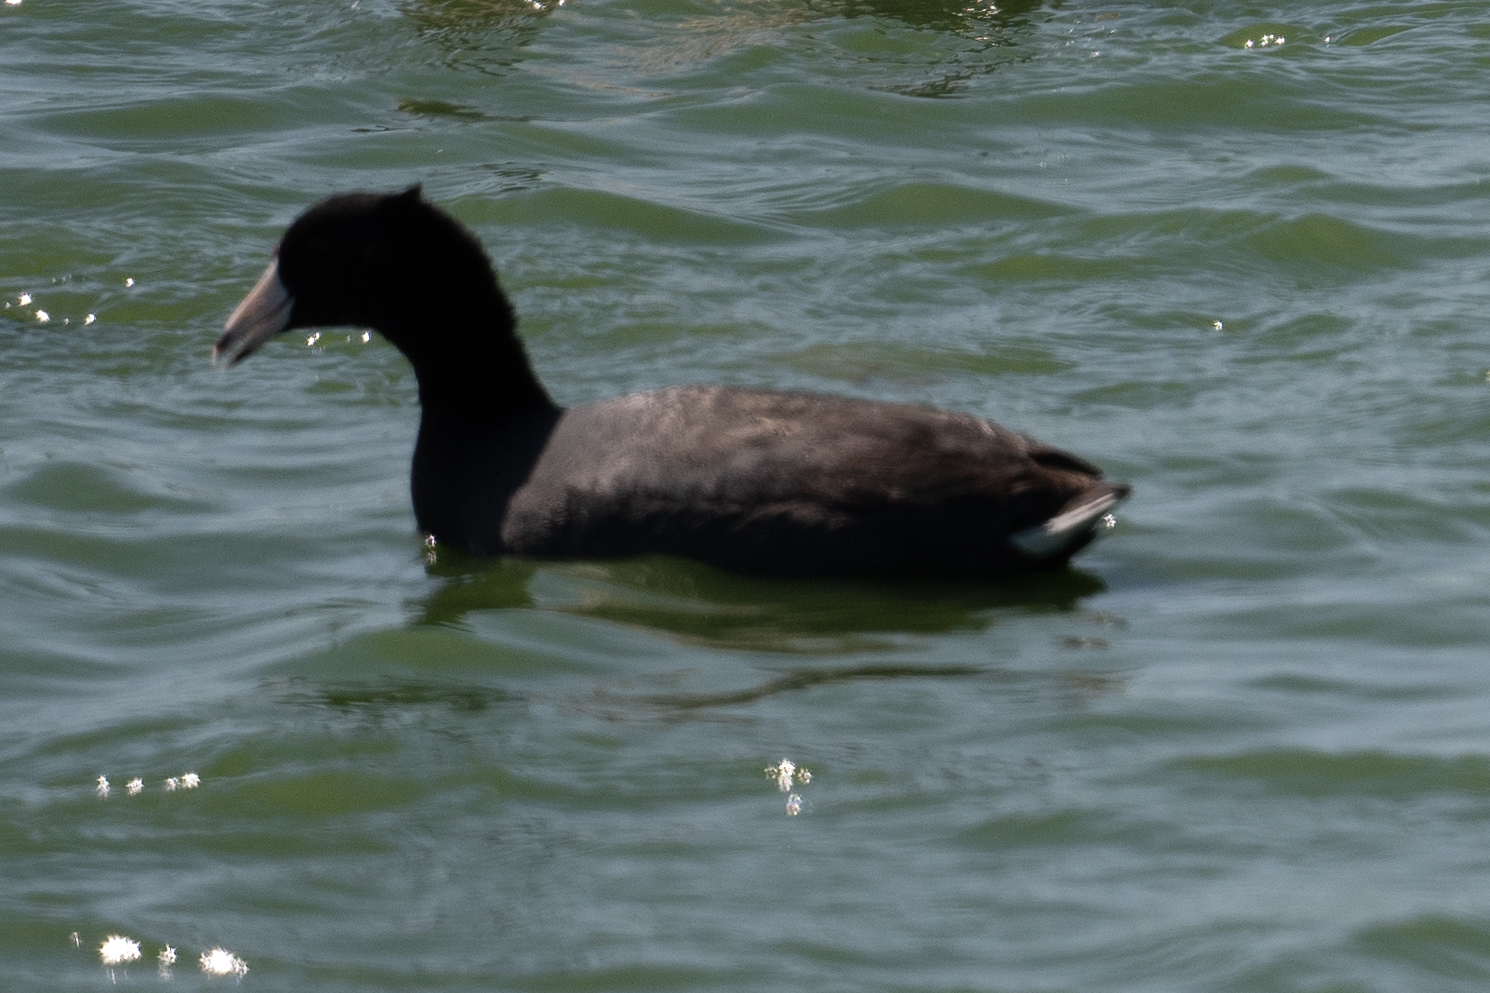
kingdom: Animalia
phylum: Chordata
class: Aves
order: Gruiformes
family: Rallidae
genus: Fulica
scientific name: Fulica americana
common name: American coot
